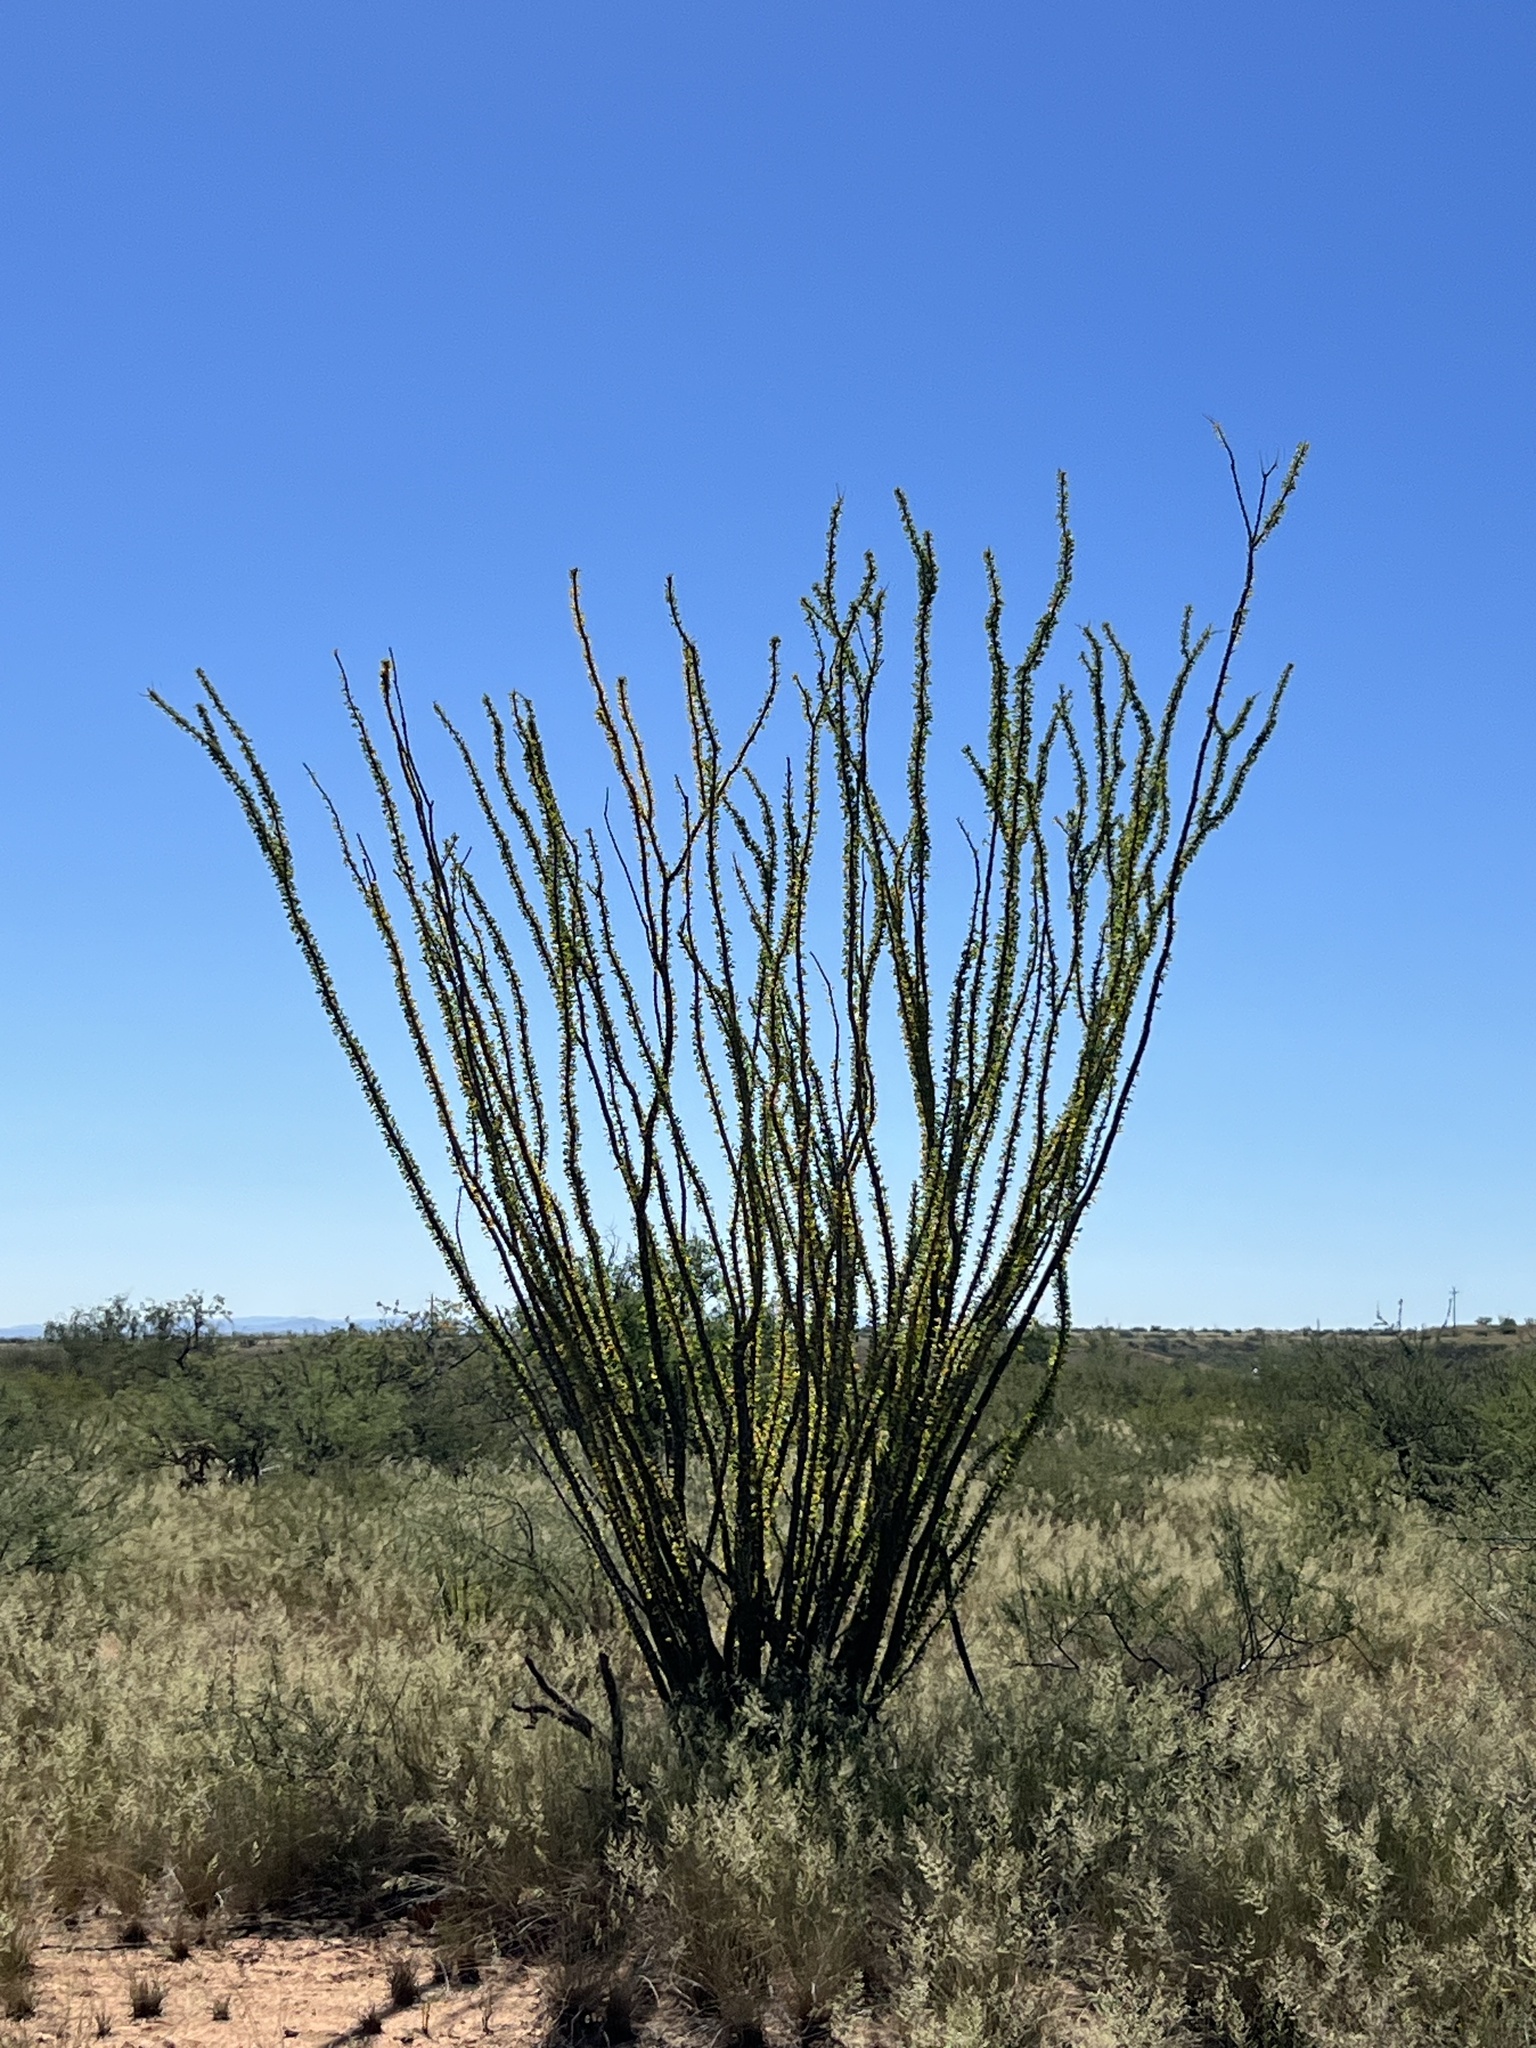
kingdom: Plantae
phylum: Tracheophyta
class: Magnoliopsida
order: Ericales
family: Fouquieriaceae
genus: Fouquieria
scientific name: Fouquieria splendens
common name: Vine-cactus
